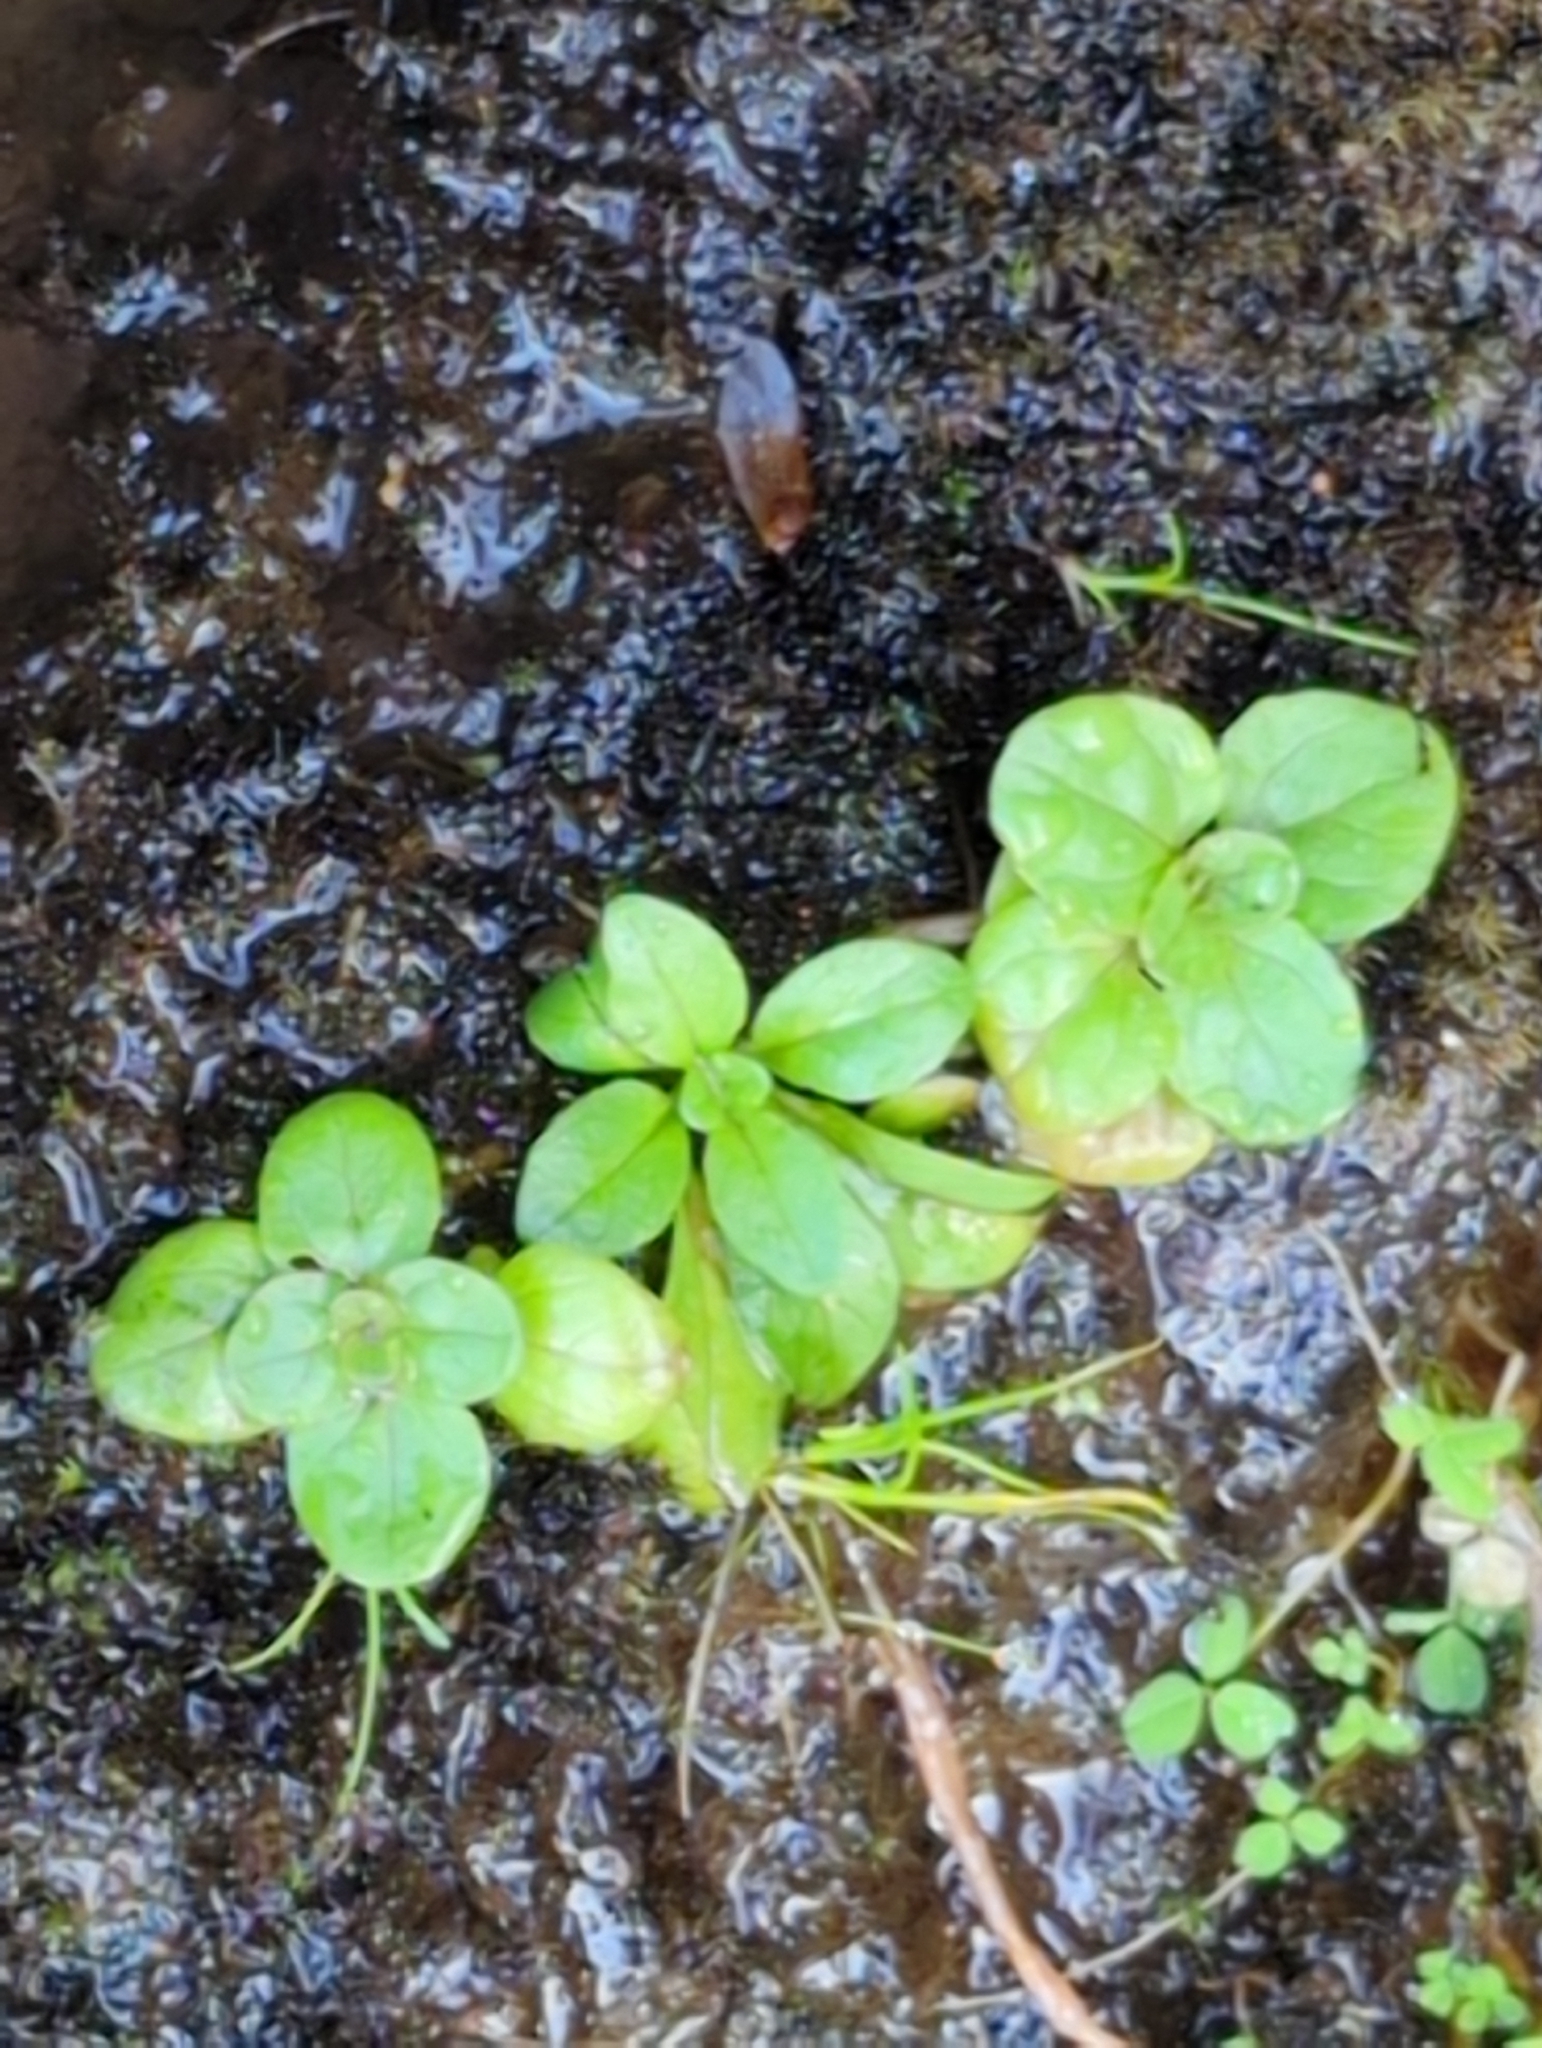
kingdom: Plantae
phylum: Tracheophyta
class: Magnoliopsida
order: Lamiales
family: Phrymaceae
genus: Erythranthe
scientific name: Erythranthe grandis
